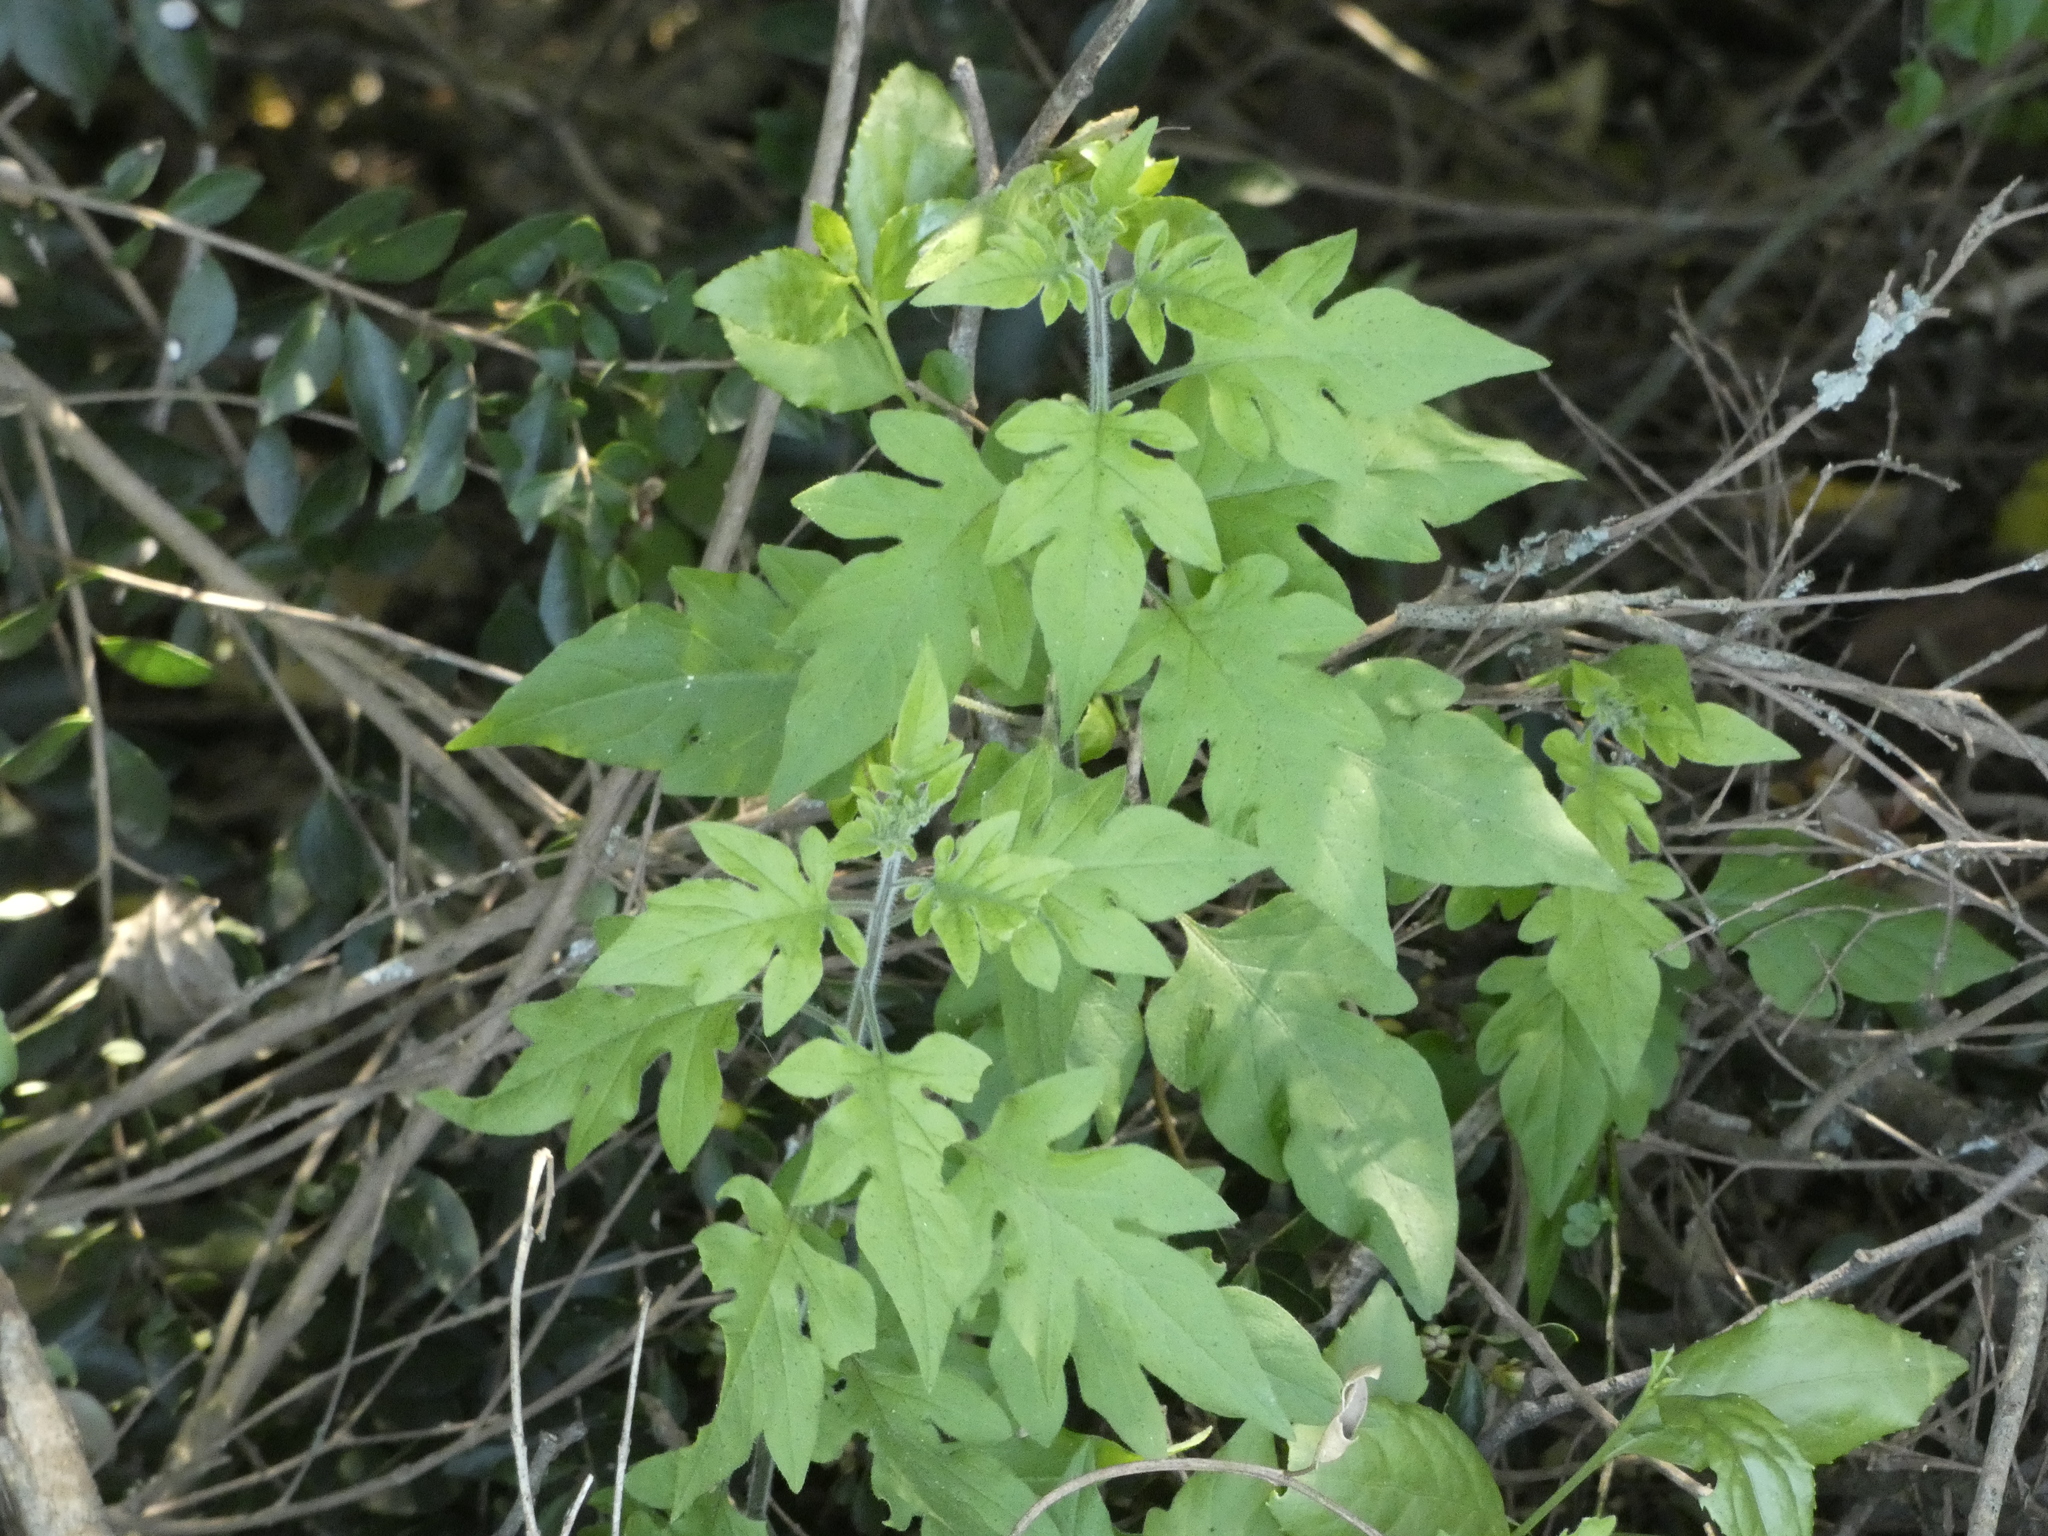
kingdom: Plantae
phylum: Tracheophyta
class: Magnoliopsida
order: Solanales
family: Solanaceae
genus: Solanum
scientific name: Solanum alphonsi
